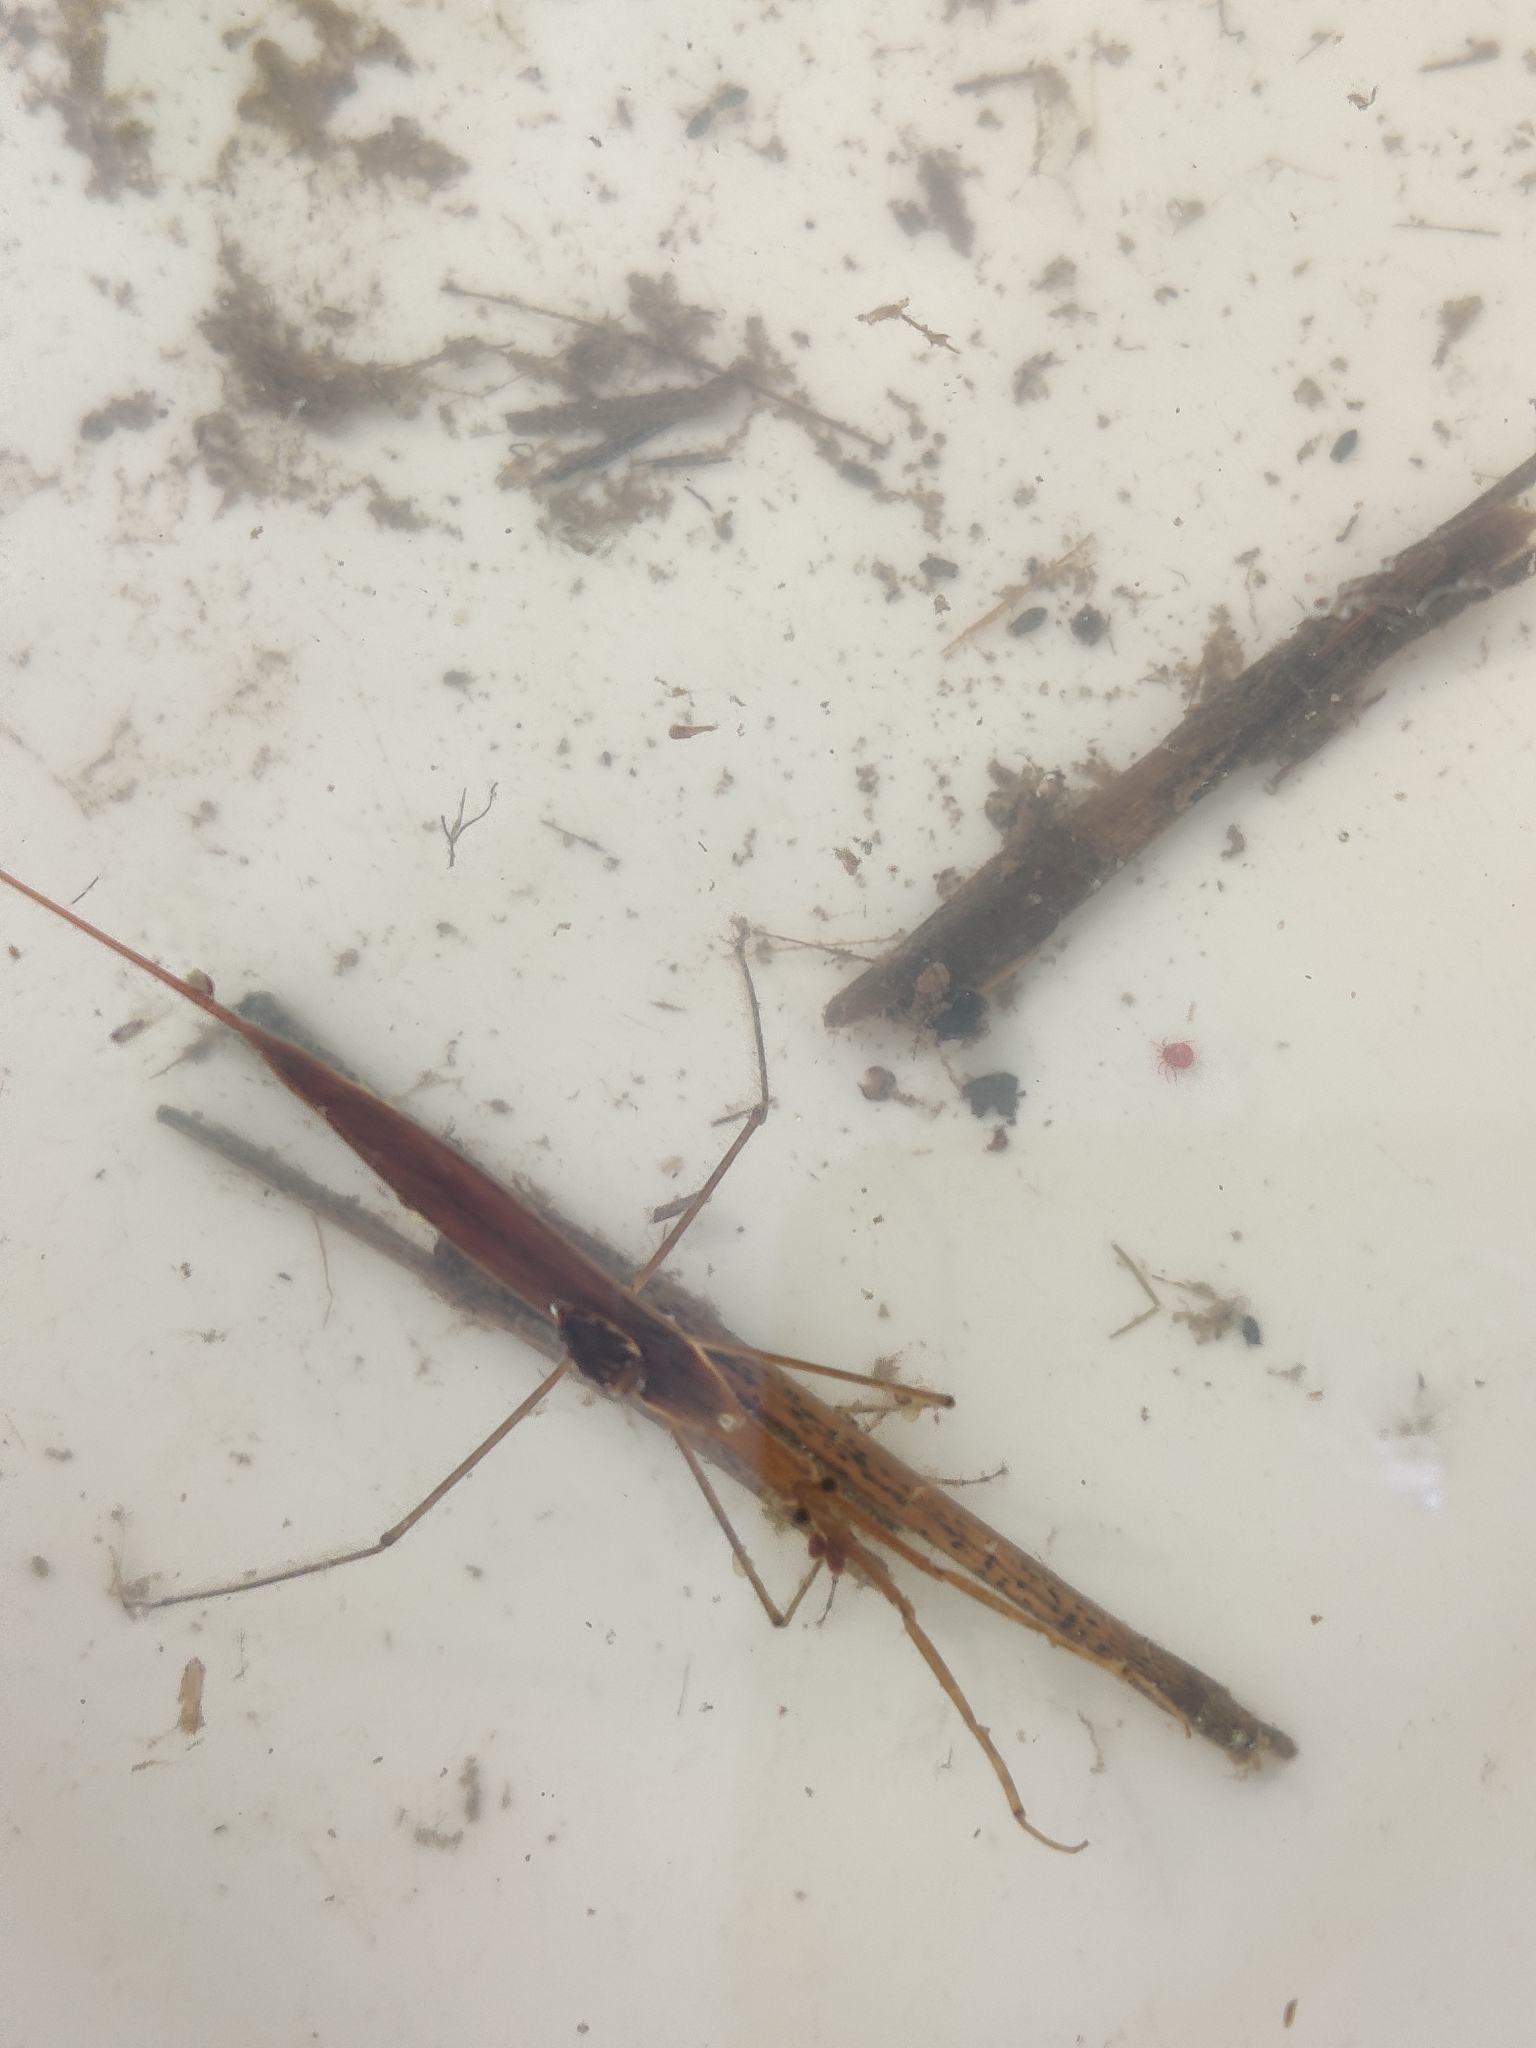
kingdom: Animalia
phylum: Arthropoda
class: Insecta
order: Hemiptera
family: Nepidae
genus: Ranatra
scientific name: Ranatra linearis
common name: Water stick insect
